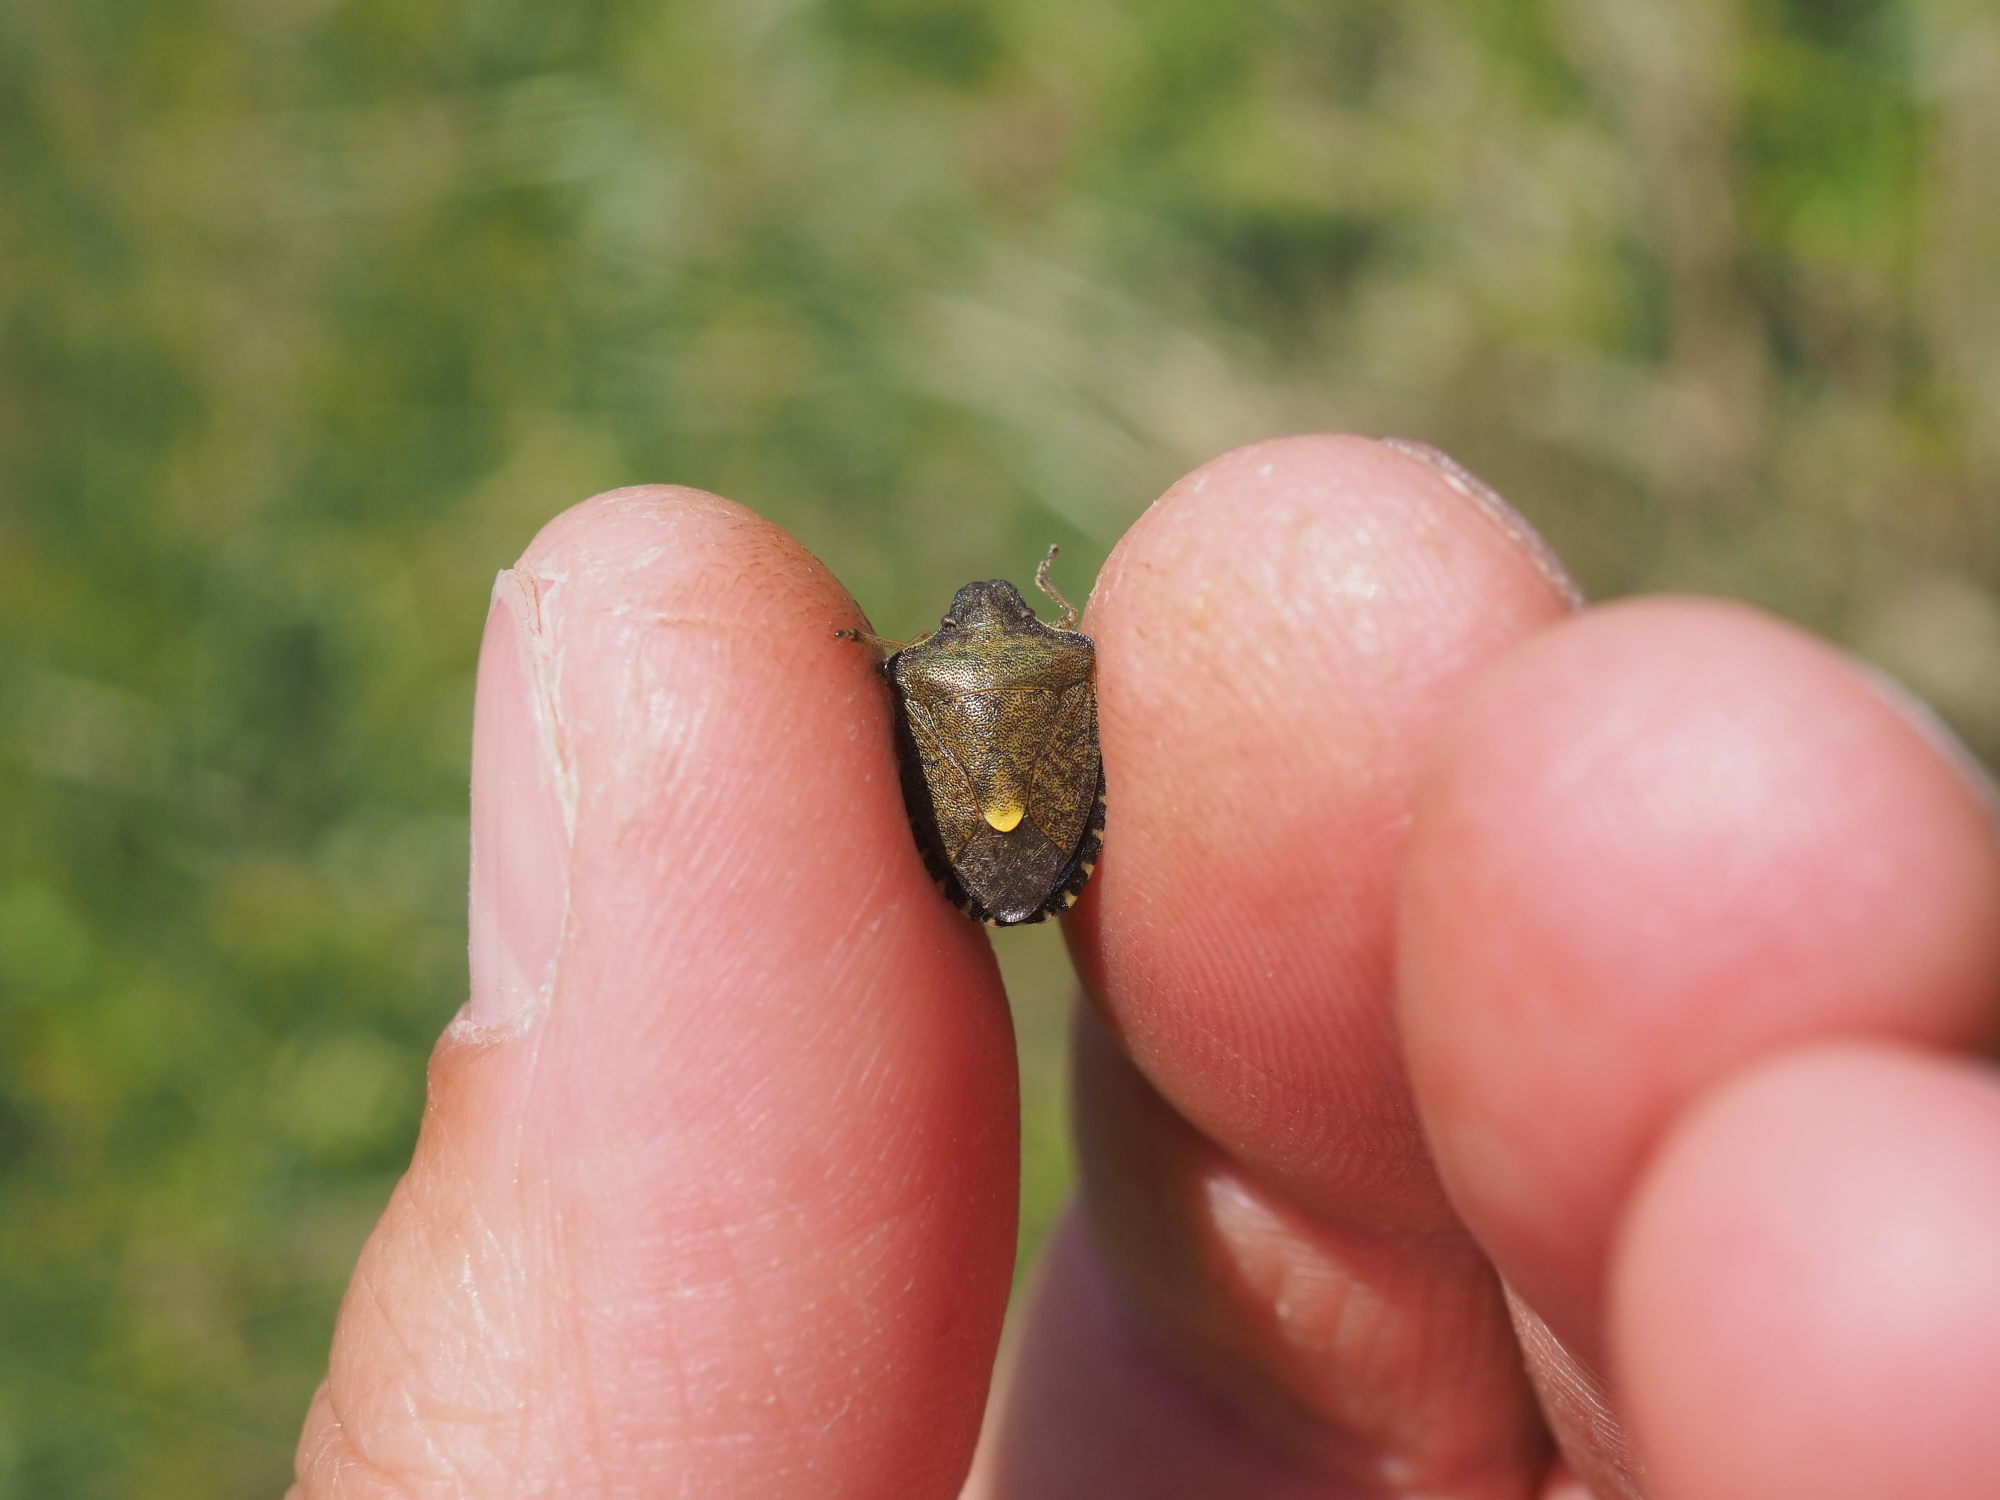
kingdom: Animalia
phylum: Arthropoda
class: Insecta
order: Hemiptera
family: Pentatomidae
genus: Holcostethus
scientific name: Holcostethus strictus
